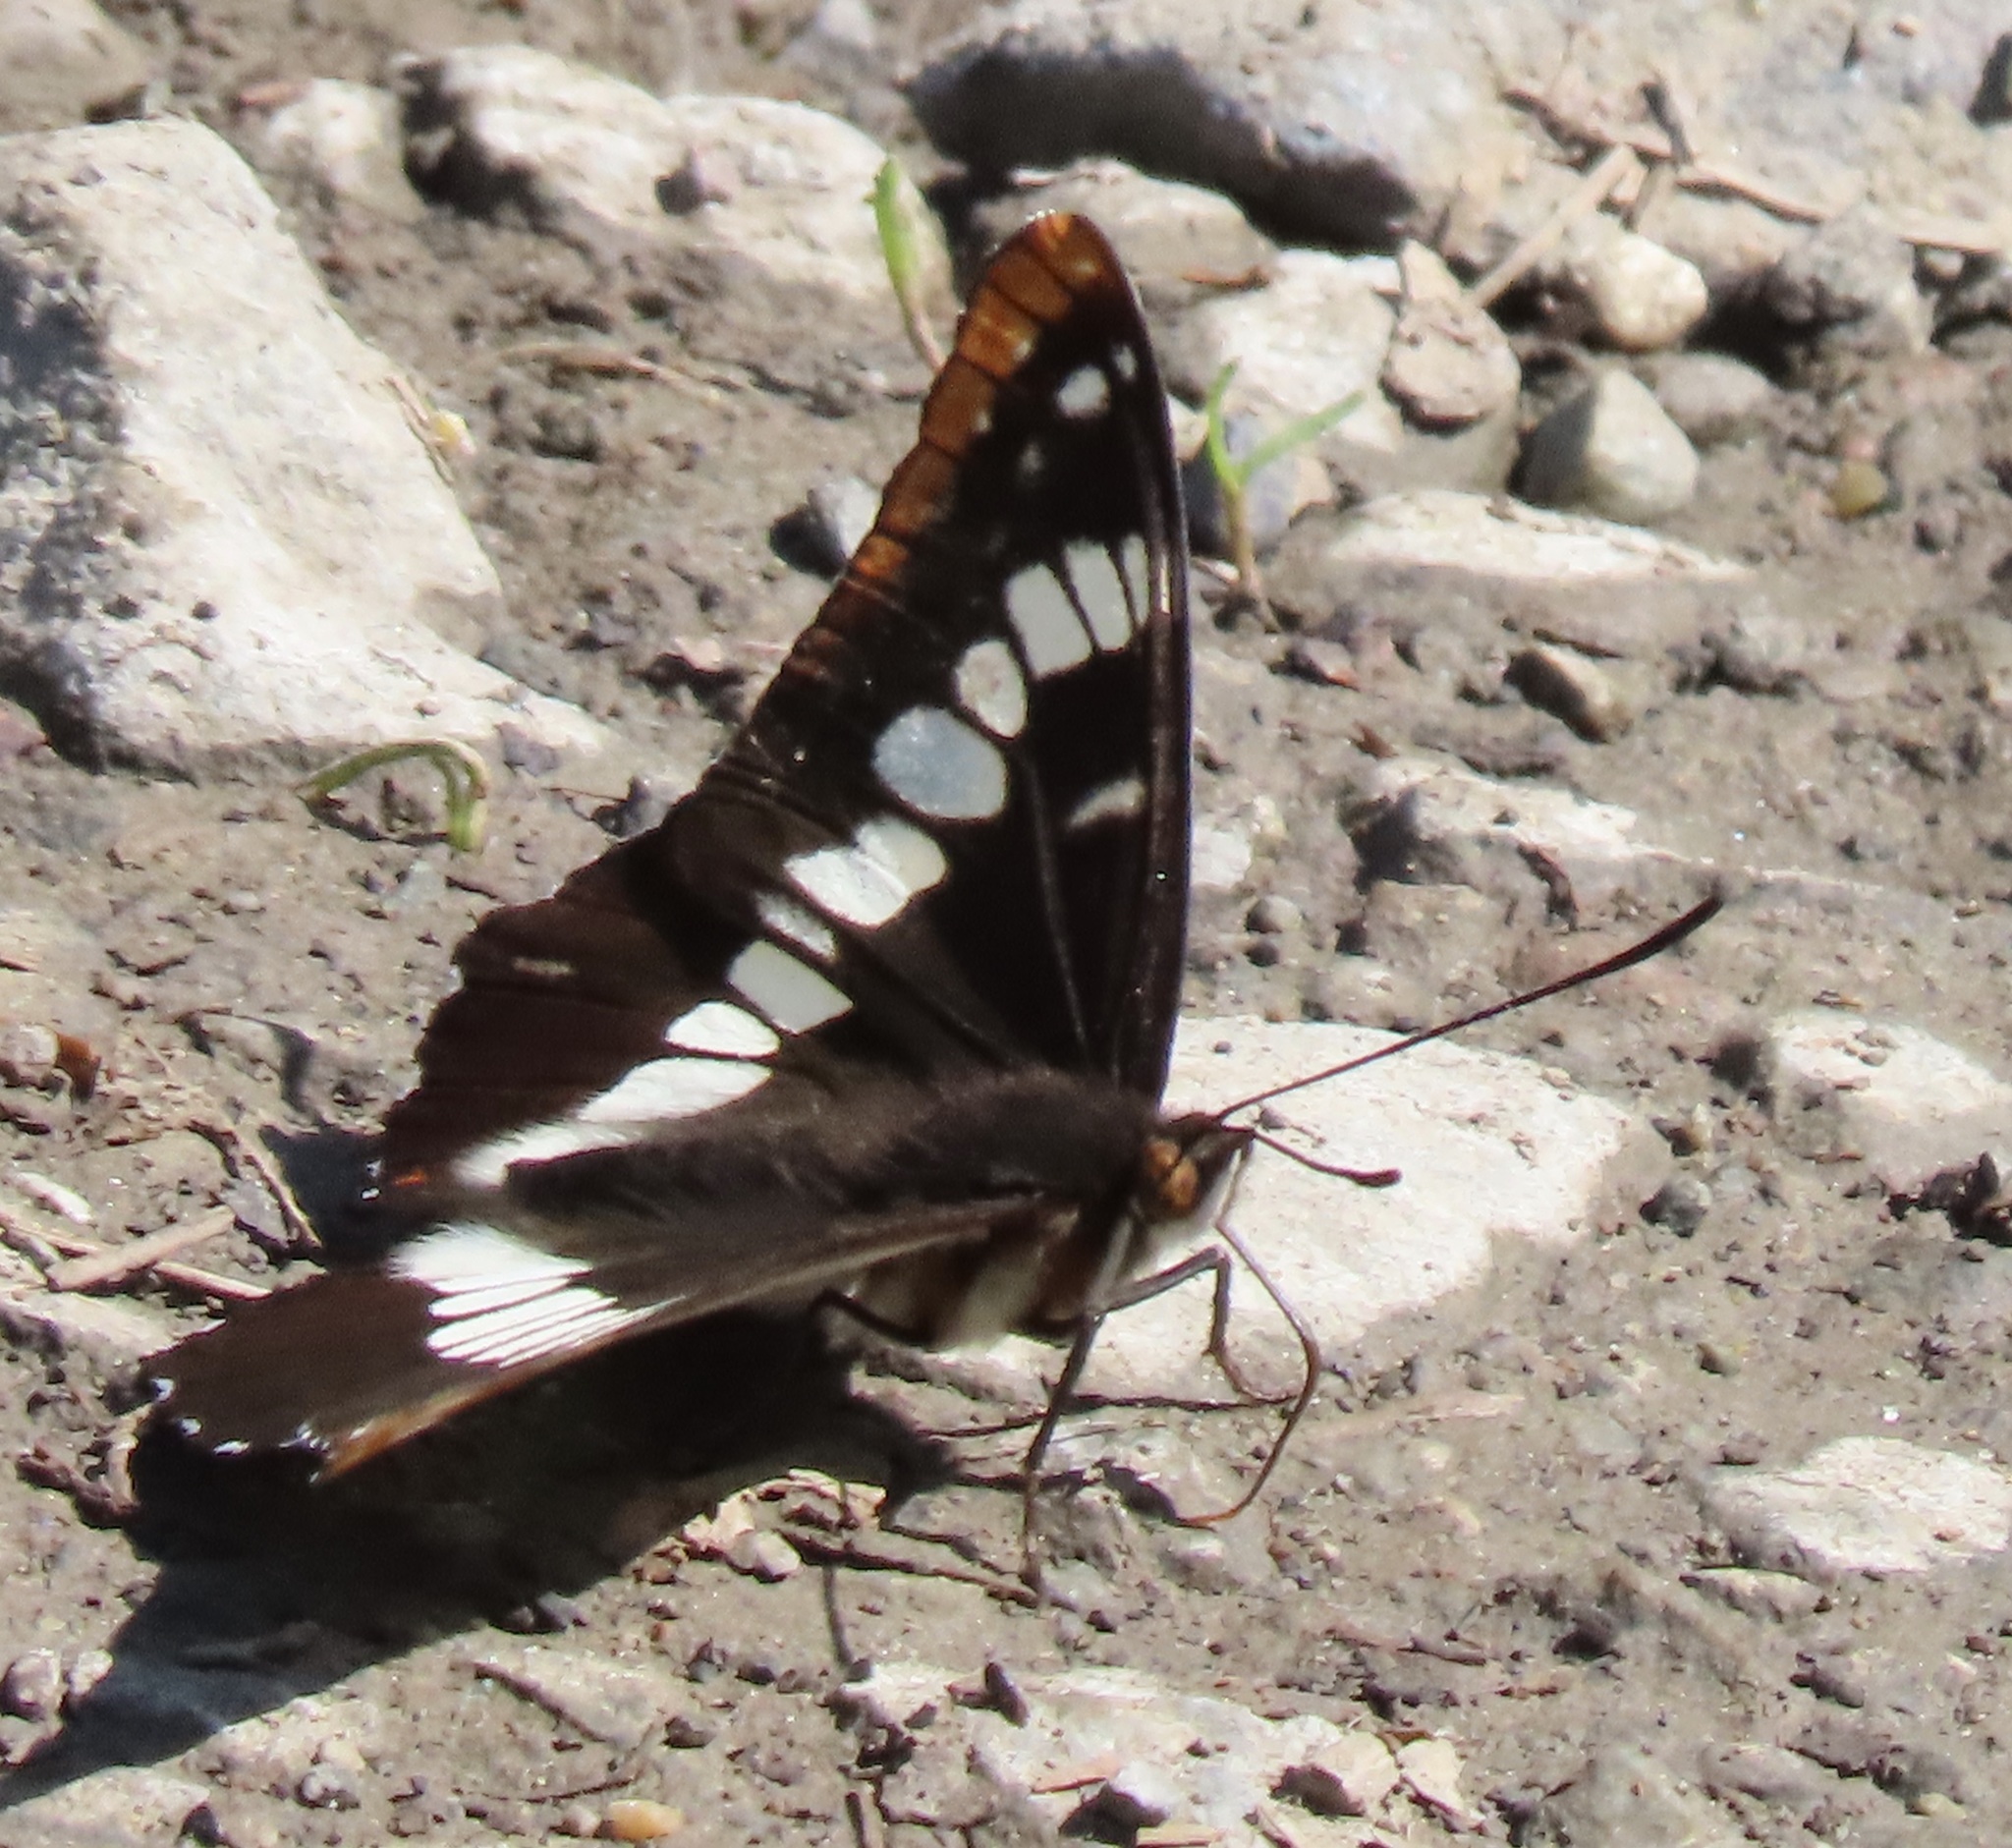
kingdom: Animalia
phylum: Arthropoda
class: Insecta
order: Lepidoptera
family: Nymphalidae
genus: Limenitis
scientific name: Limenitis lorquini
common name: Lorquin's admiral
